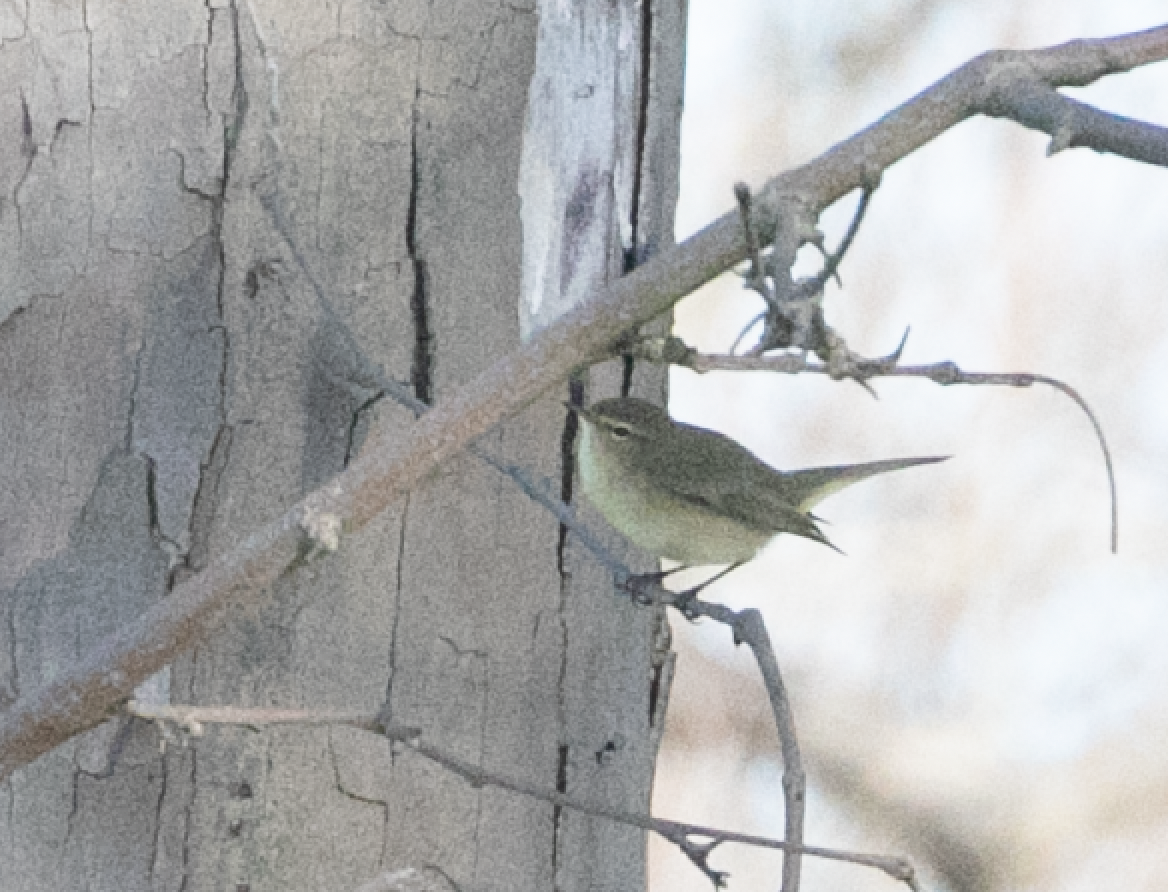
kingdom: Animalia
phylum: Chordata
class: Aves
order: Passeriformes
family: Phylloscopidae
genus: Phylloscopus
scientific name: Phylloscopus collybita
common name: Common chiffchaff
